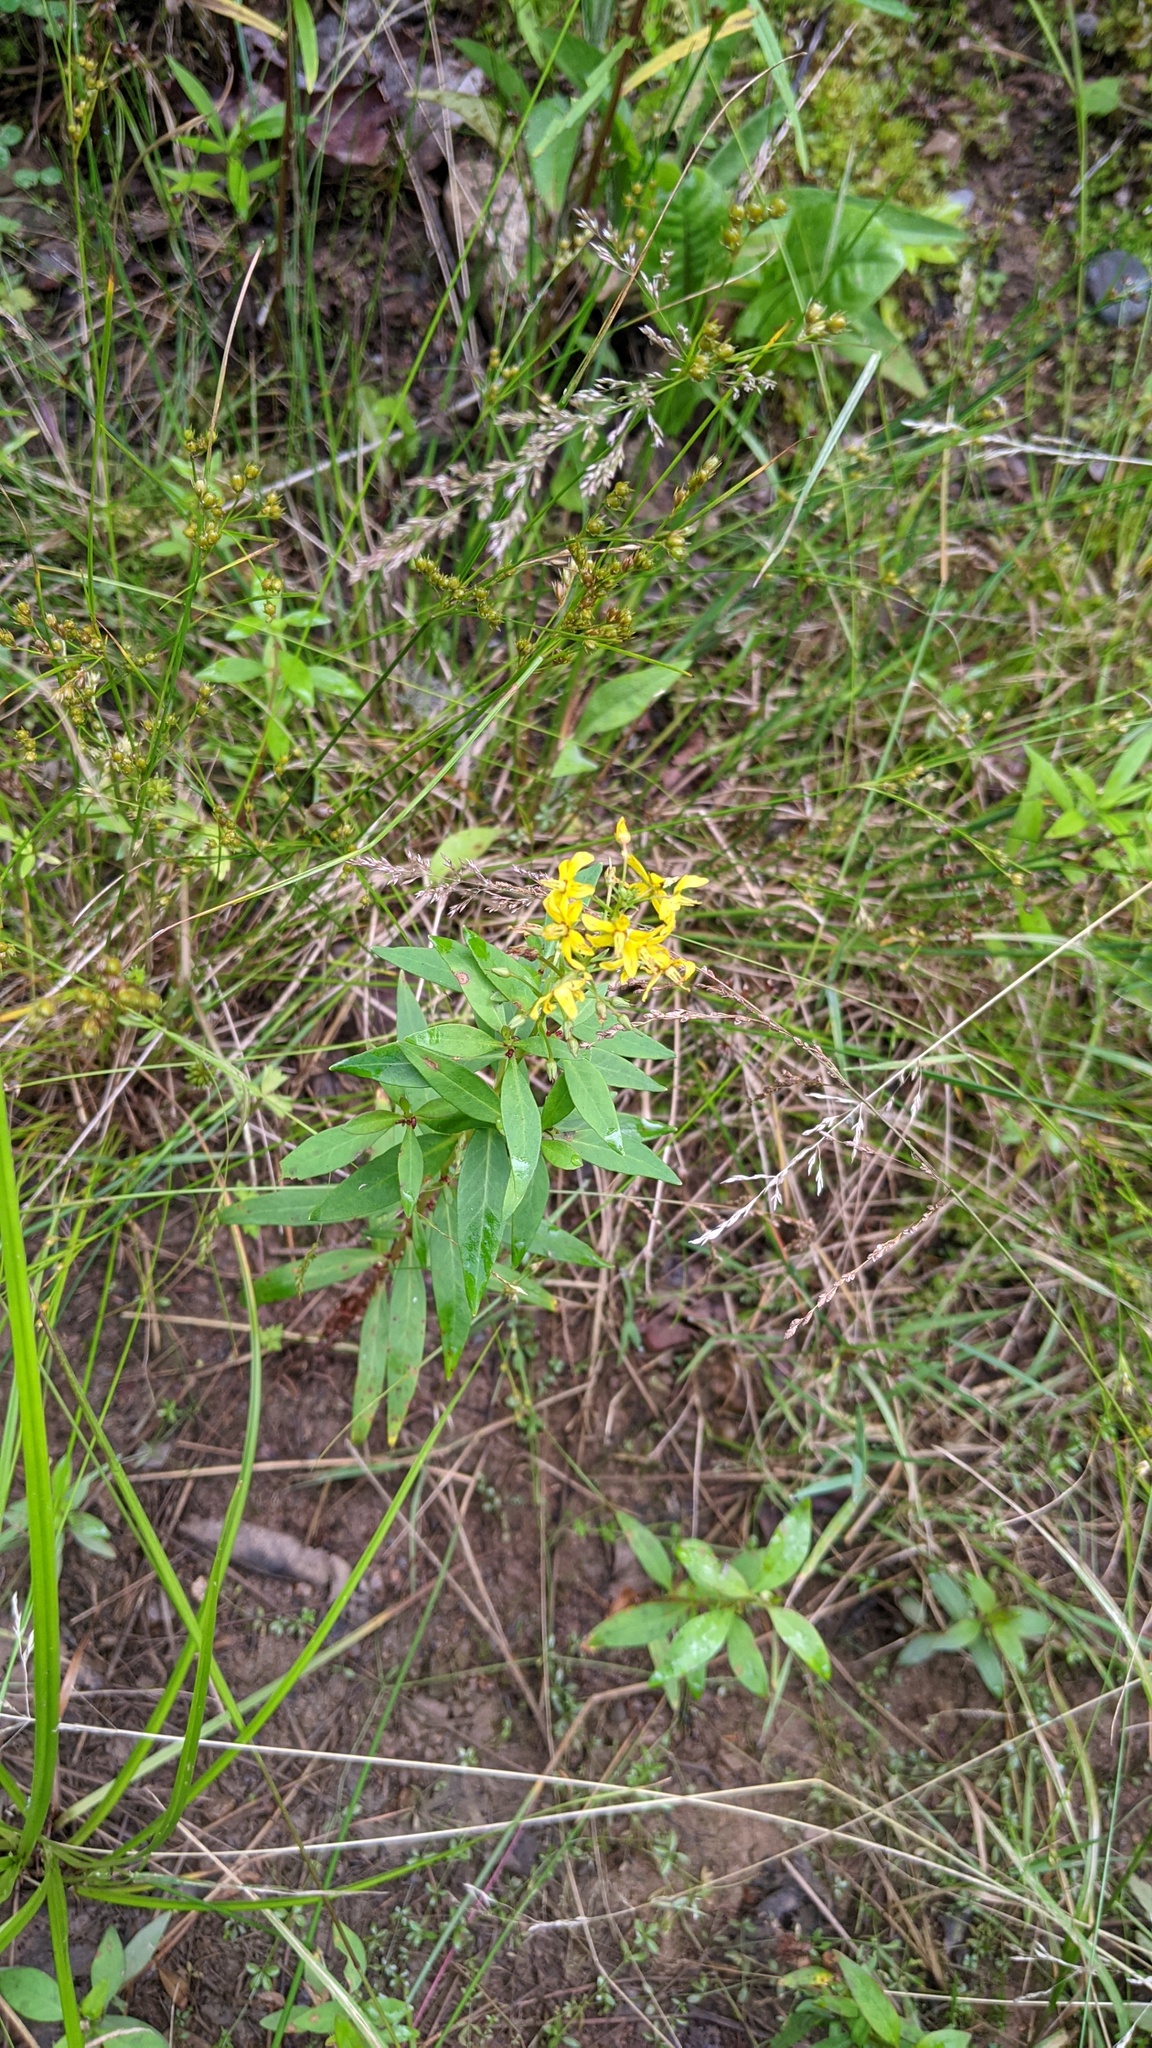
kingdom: Plantae
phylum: Tracheophyta
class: Magnoliopsida
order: Ericales
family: Primulaceae
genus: Lysimachia
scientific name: Lysimachia terrestris
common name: Lake loosestrife
